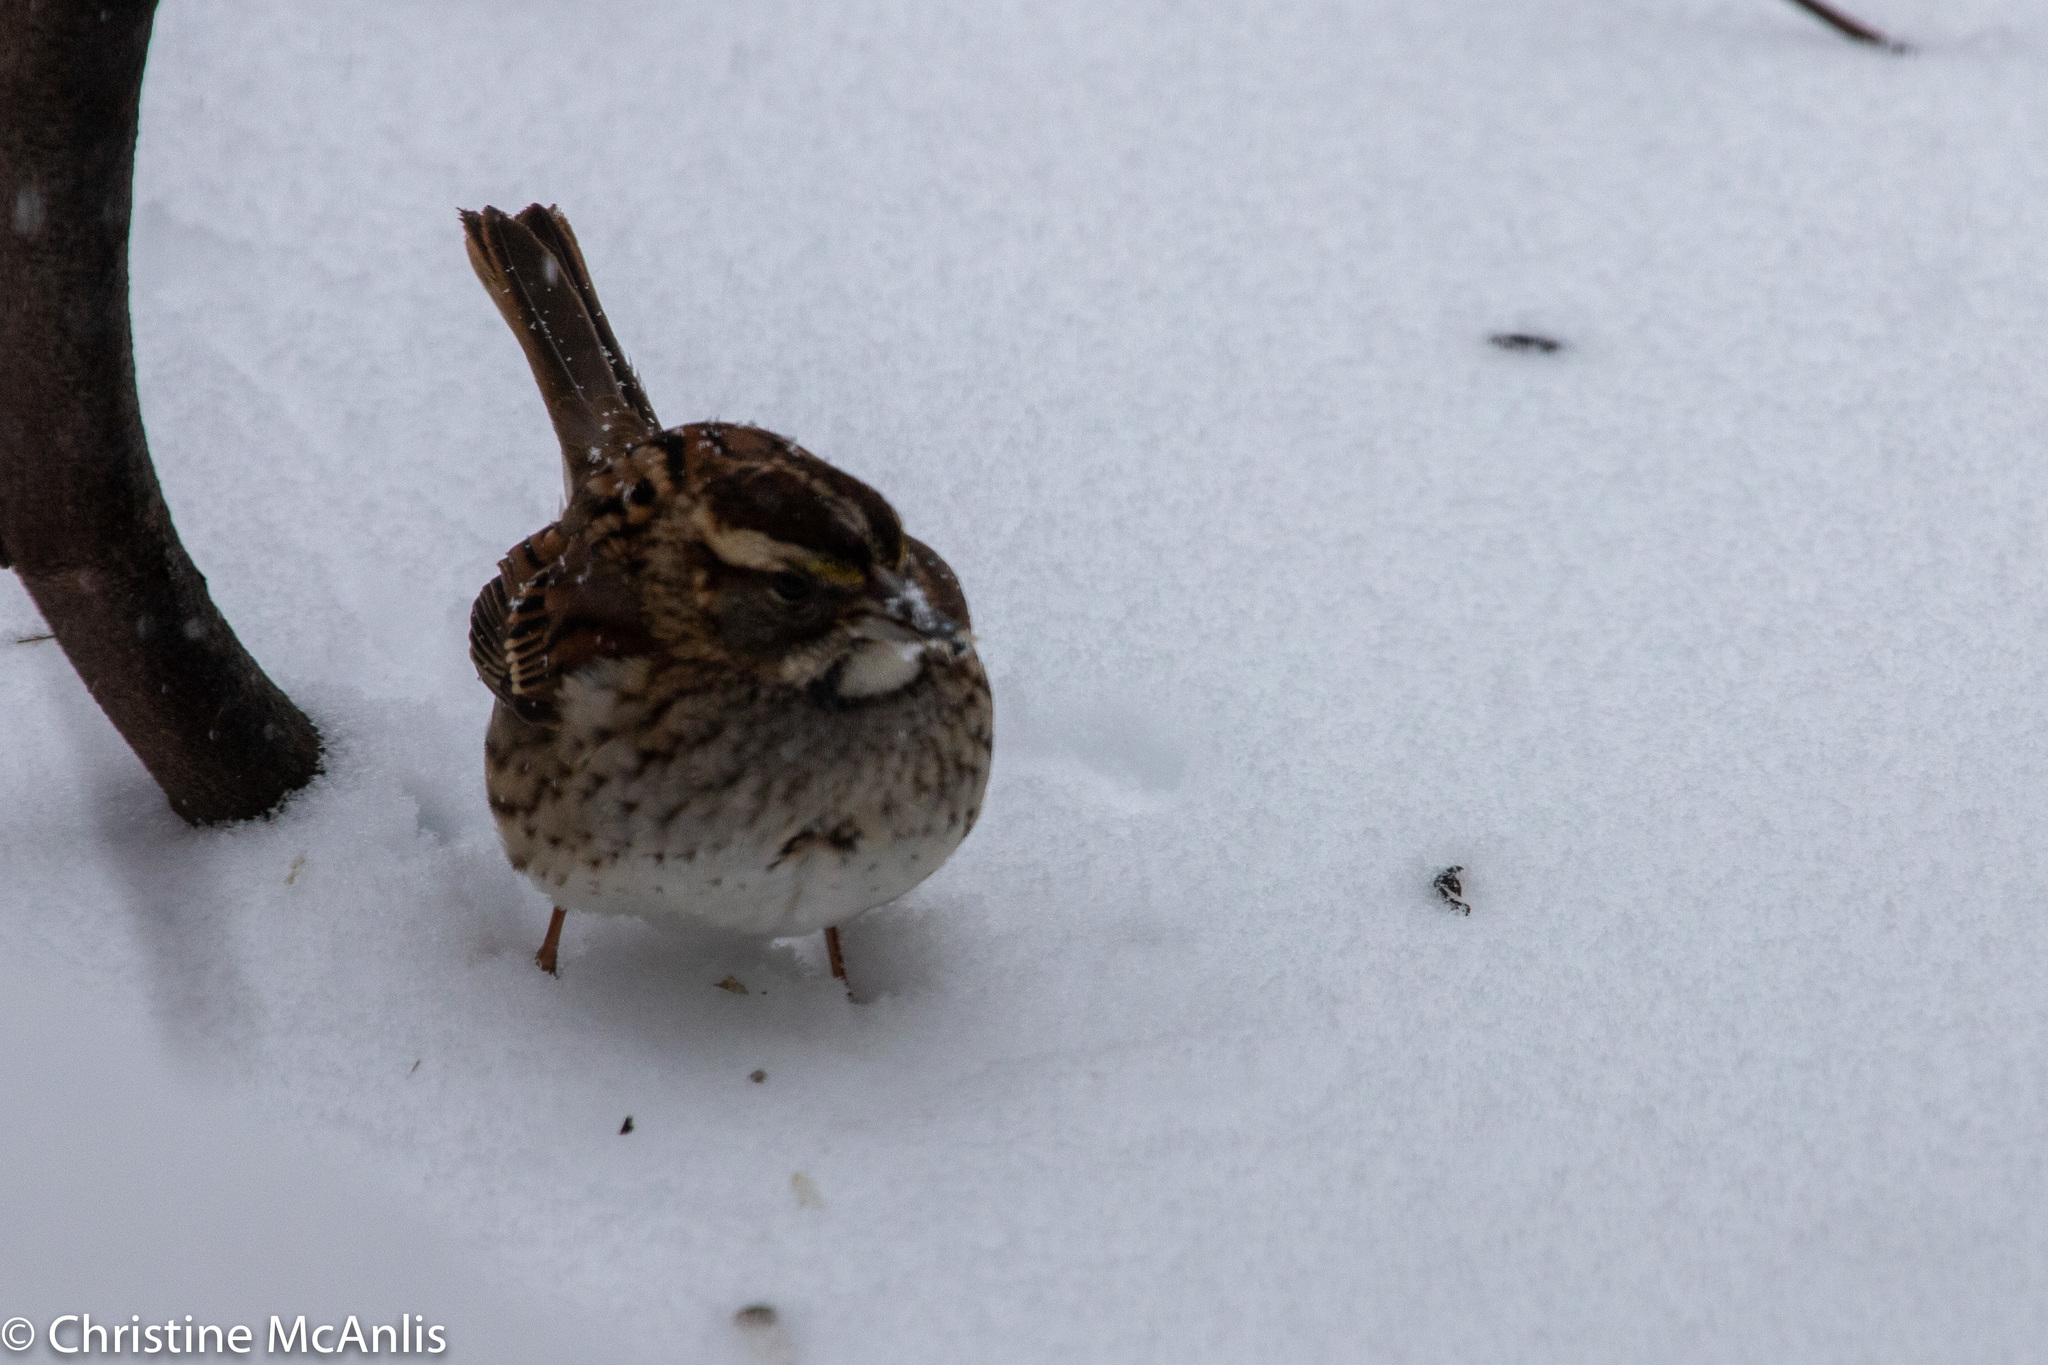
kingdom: Animalia
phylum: Chordata
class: Aves
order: Passeriformes
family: Passerellidae
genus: Zonotrichia
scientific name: Zonotrichia albicollis
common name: White-throated sparrow
